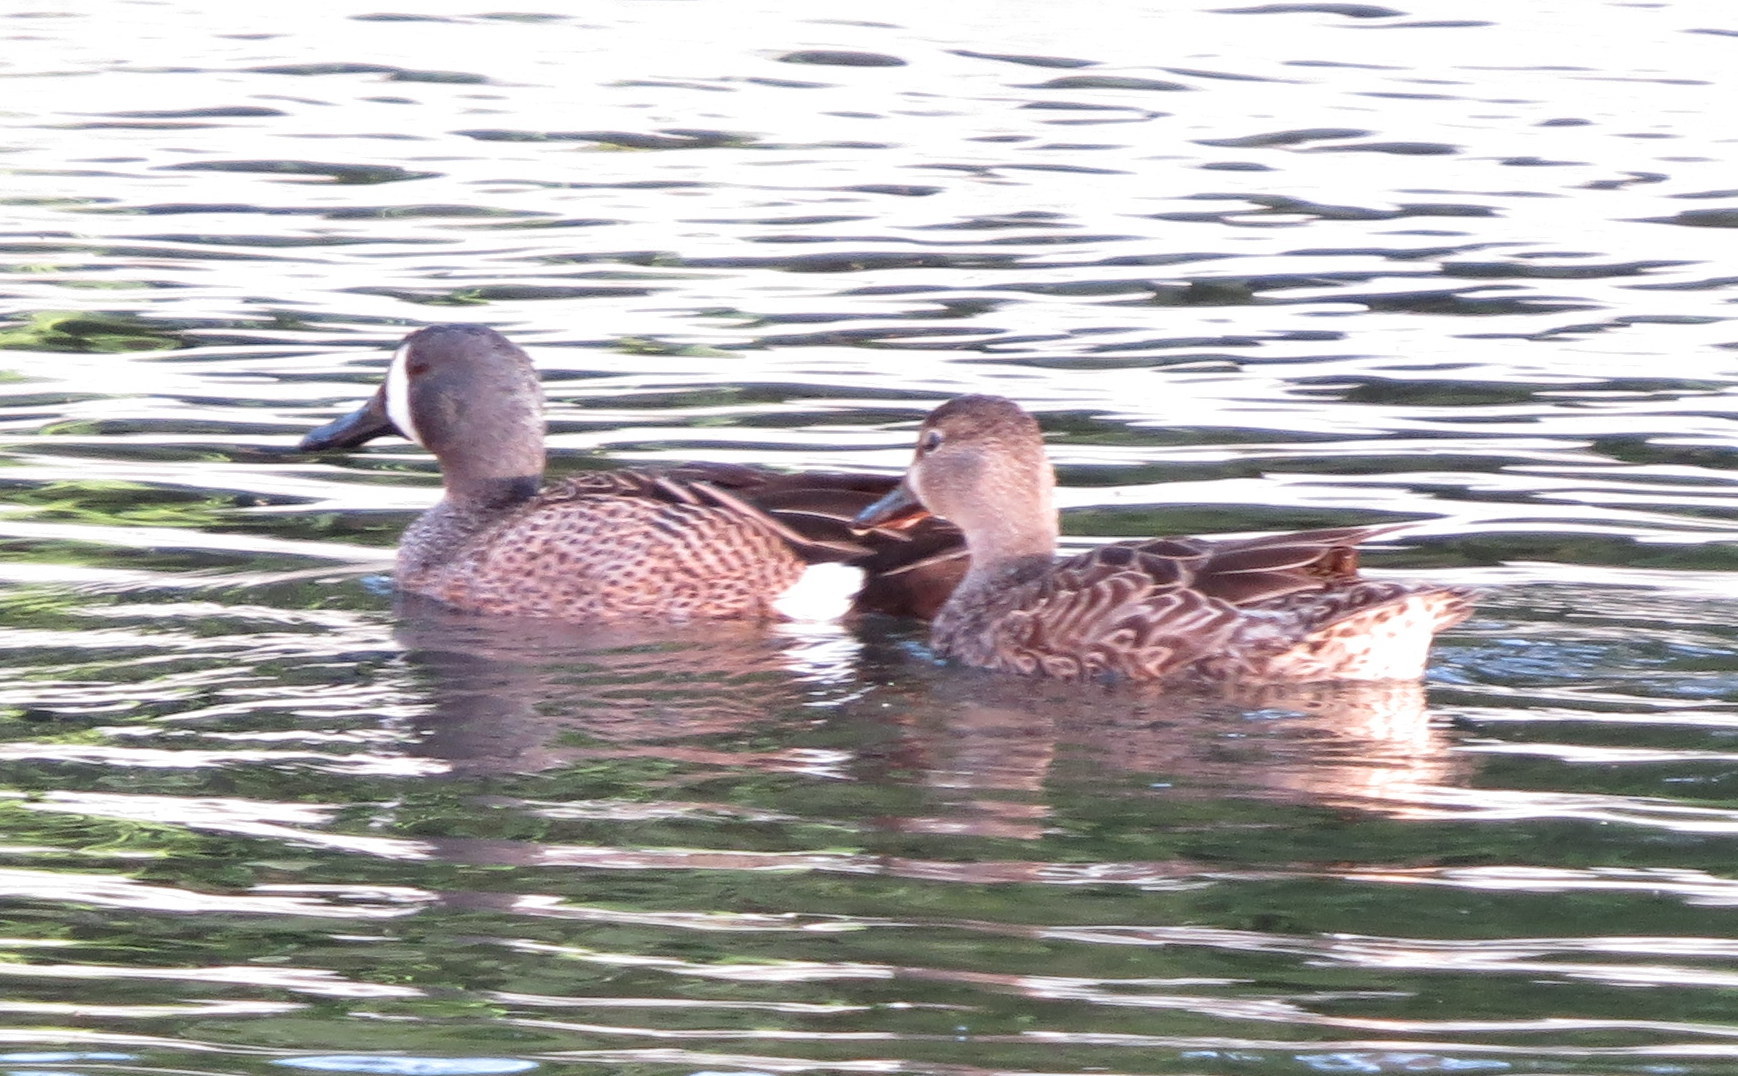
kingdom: Animalia
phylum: Chordata
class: Aves
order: Anseriformes
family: Anatidae
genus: Spatula
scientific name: Spatula discors
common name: Blue-winged teal
